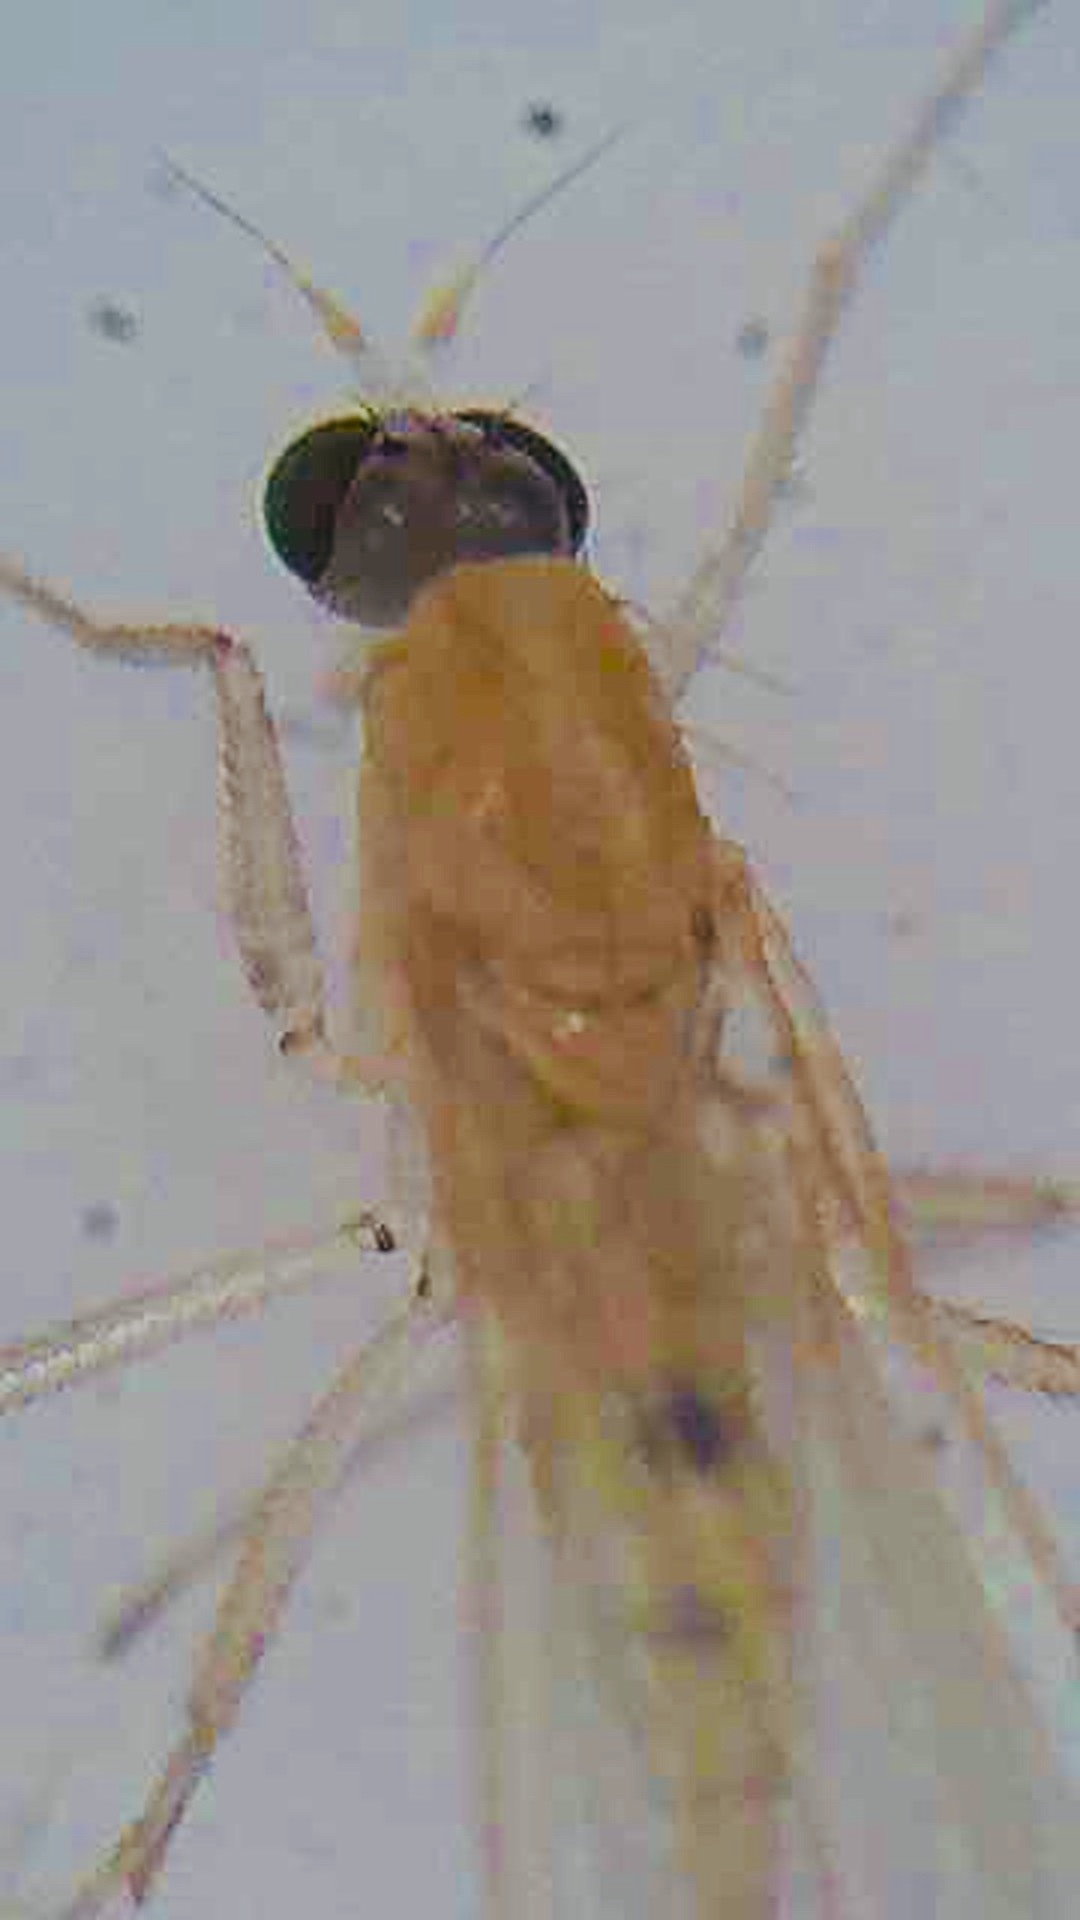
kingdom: Animalia
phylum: Arthropoda
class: Insecta
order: Diptera
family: Empididae
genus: Monodromia
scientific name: Monodromia fragilis
